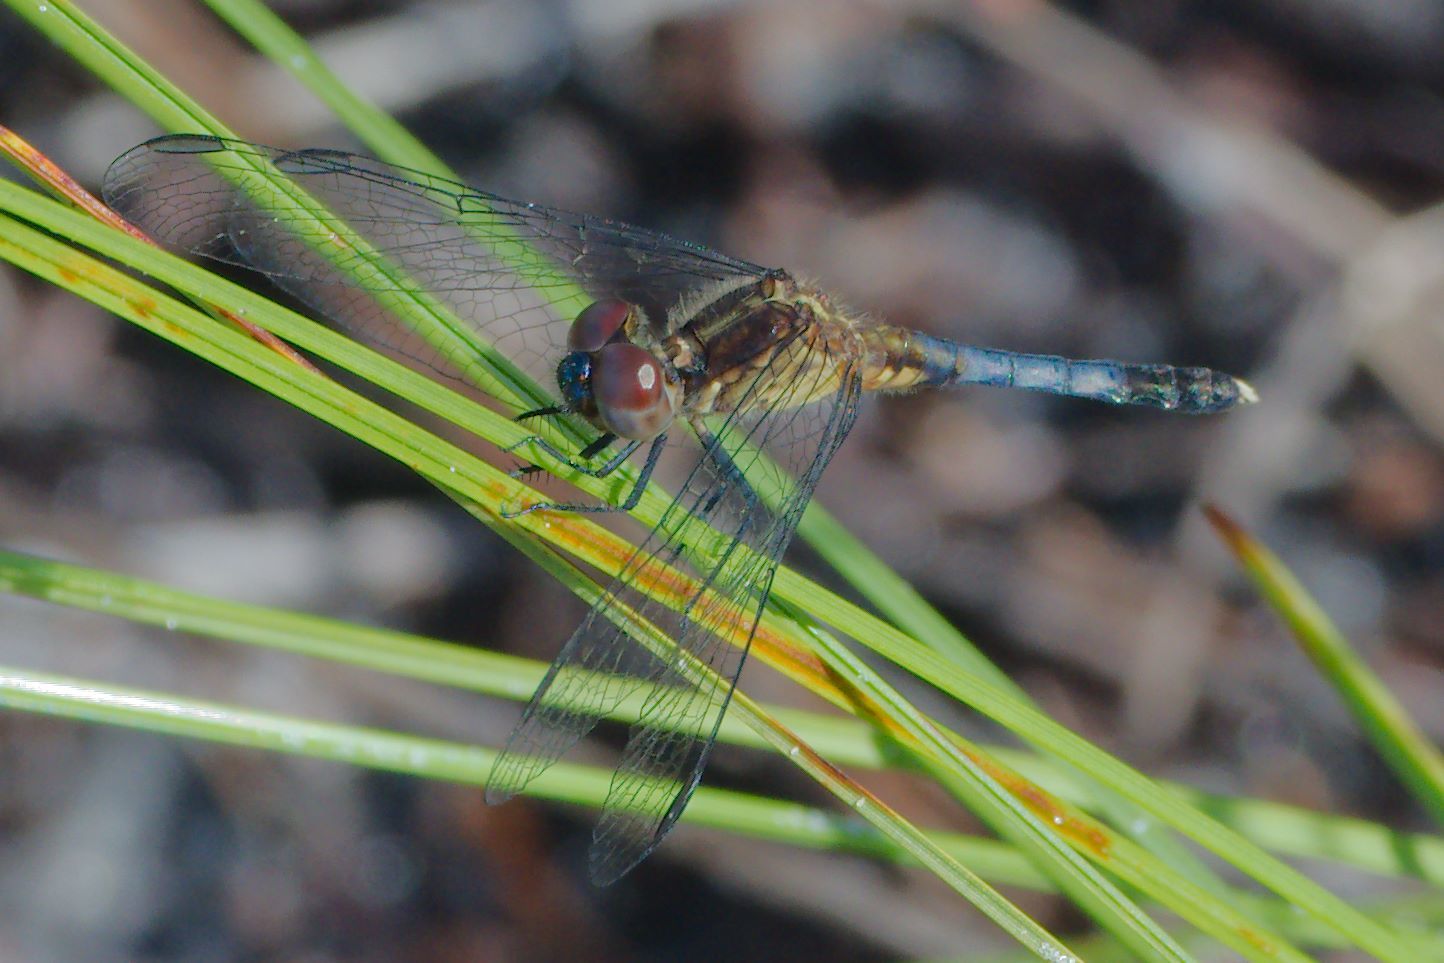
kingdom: Animalia
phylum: Arthropoda
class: Insecta
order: Odonata
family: Libellulidae
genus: Erythrodiplax
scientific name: Erythrodiplax minuscula
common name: Little blue dragonlet
